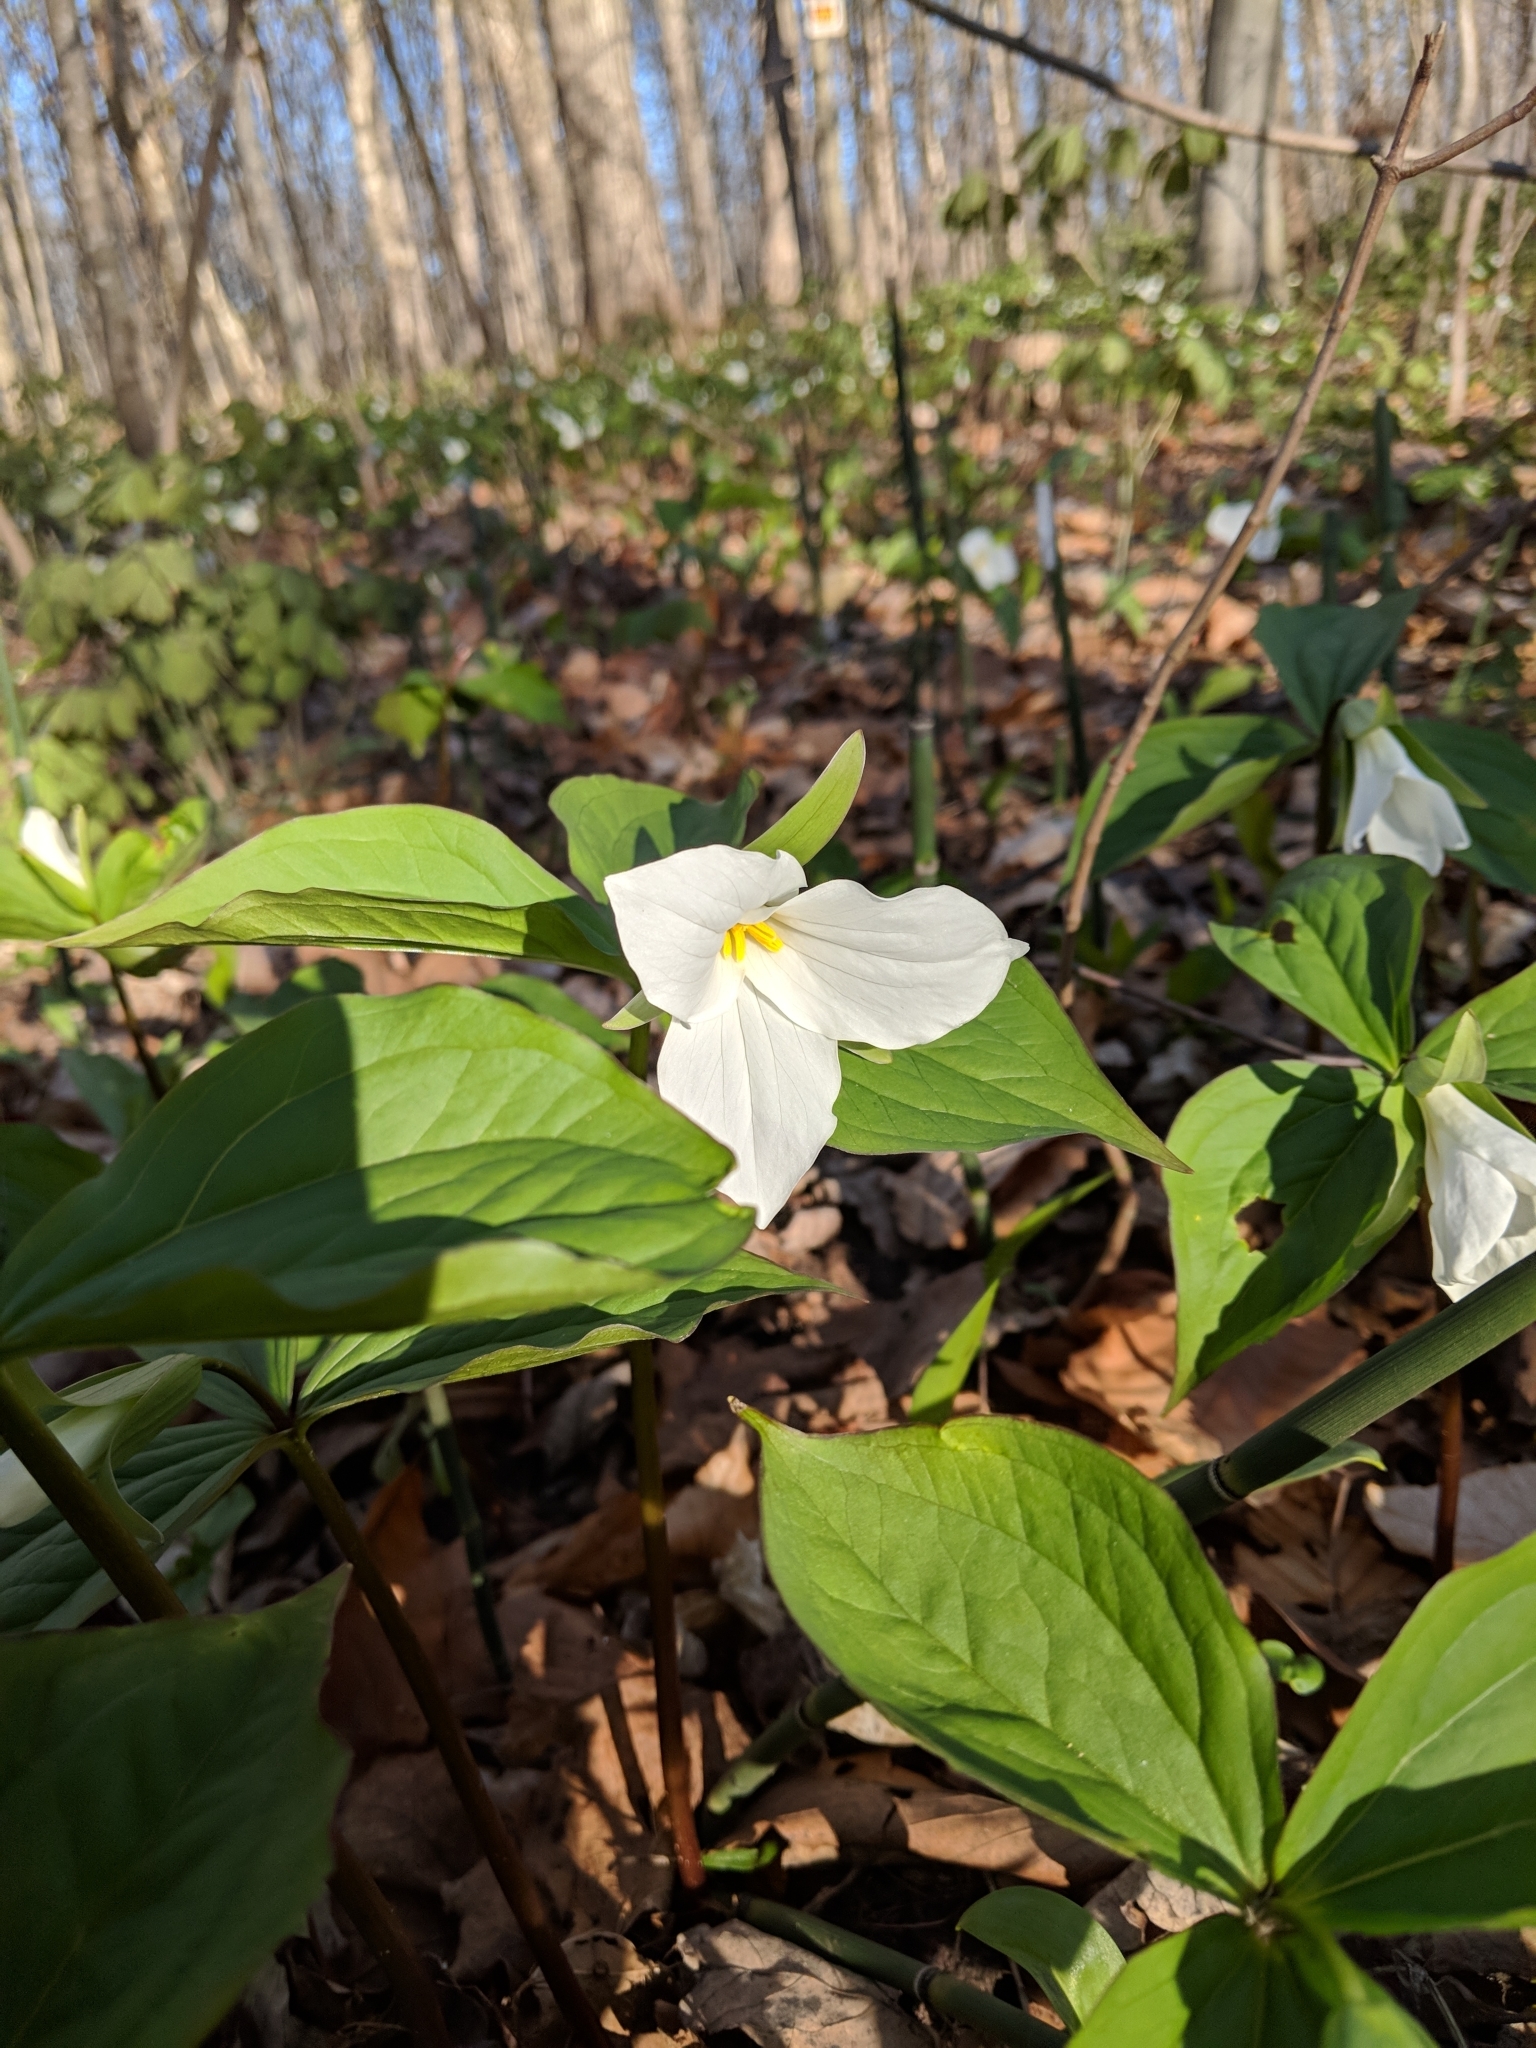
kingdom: Plantae
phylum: Tracheophyta
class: Liliopsida
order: Liliales
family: Melanthiaceae
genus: Trillium
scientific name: Trillium grandiflorum
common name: Great white trillium
